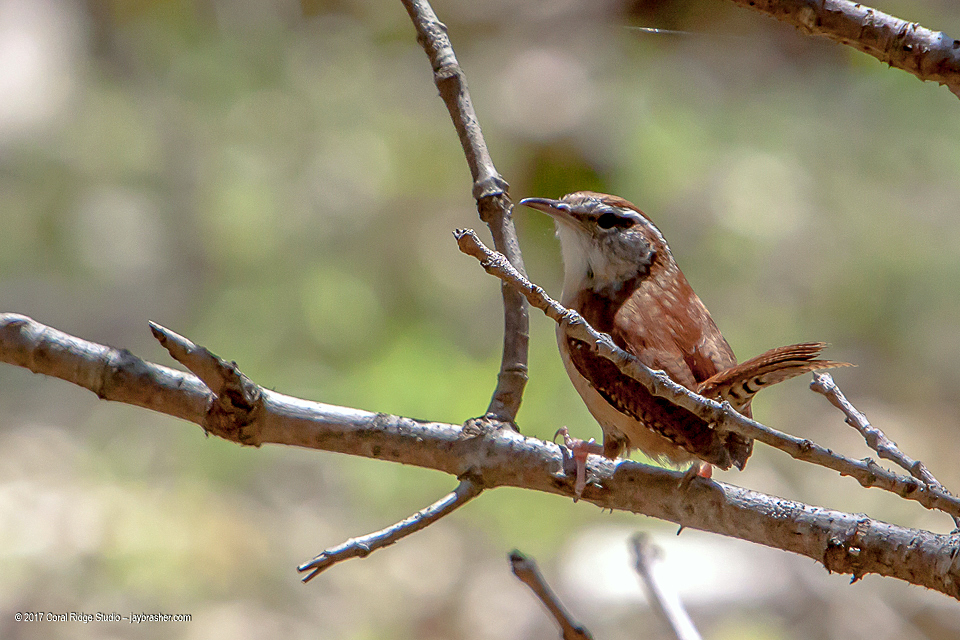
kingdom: Animalia
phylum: Chordata
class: Aves
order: Passeriformes
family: Troglodytidae
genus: Thryothorus
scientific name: Thryothorus ludovicianus
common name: Carolina wren
